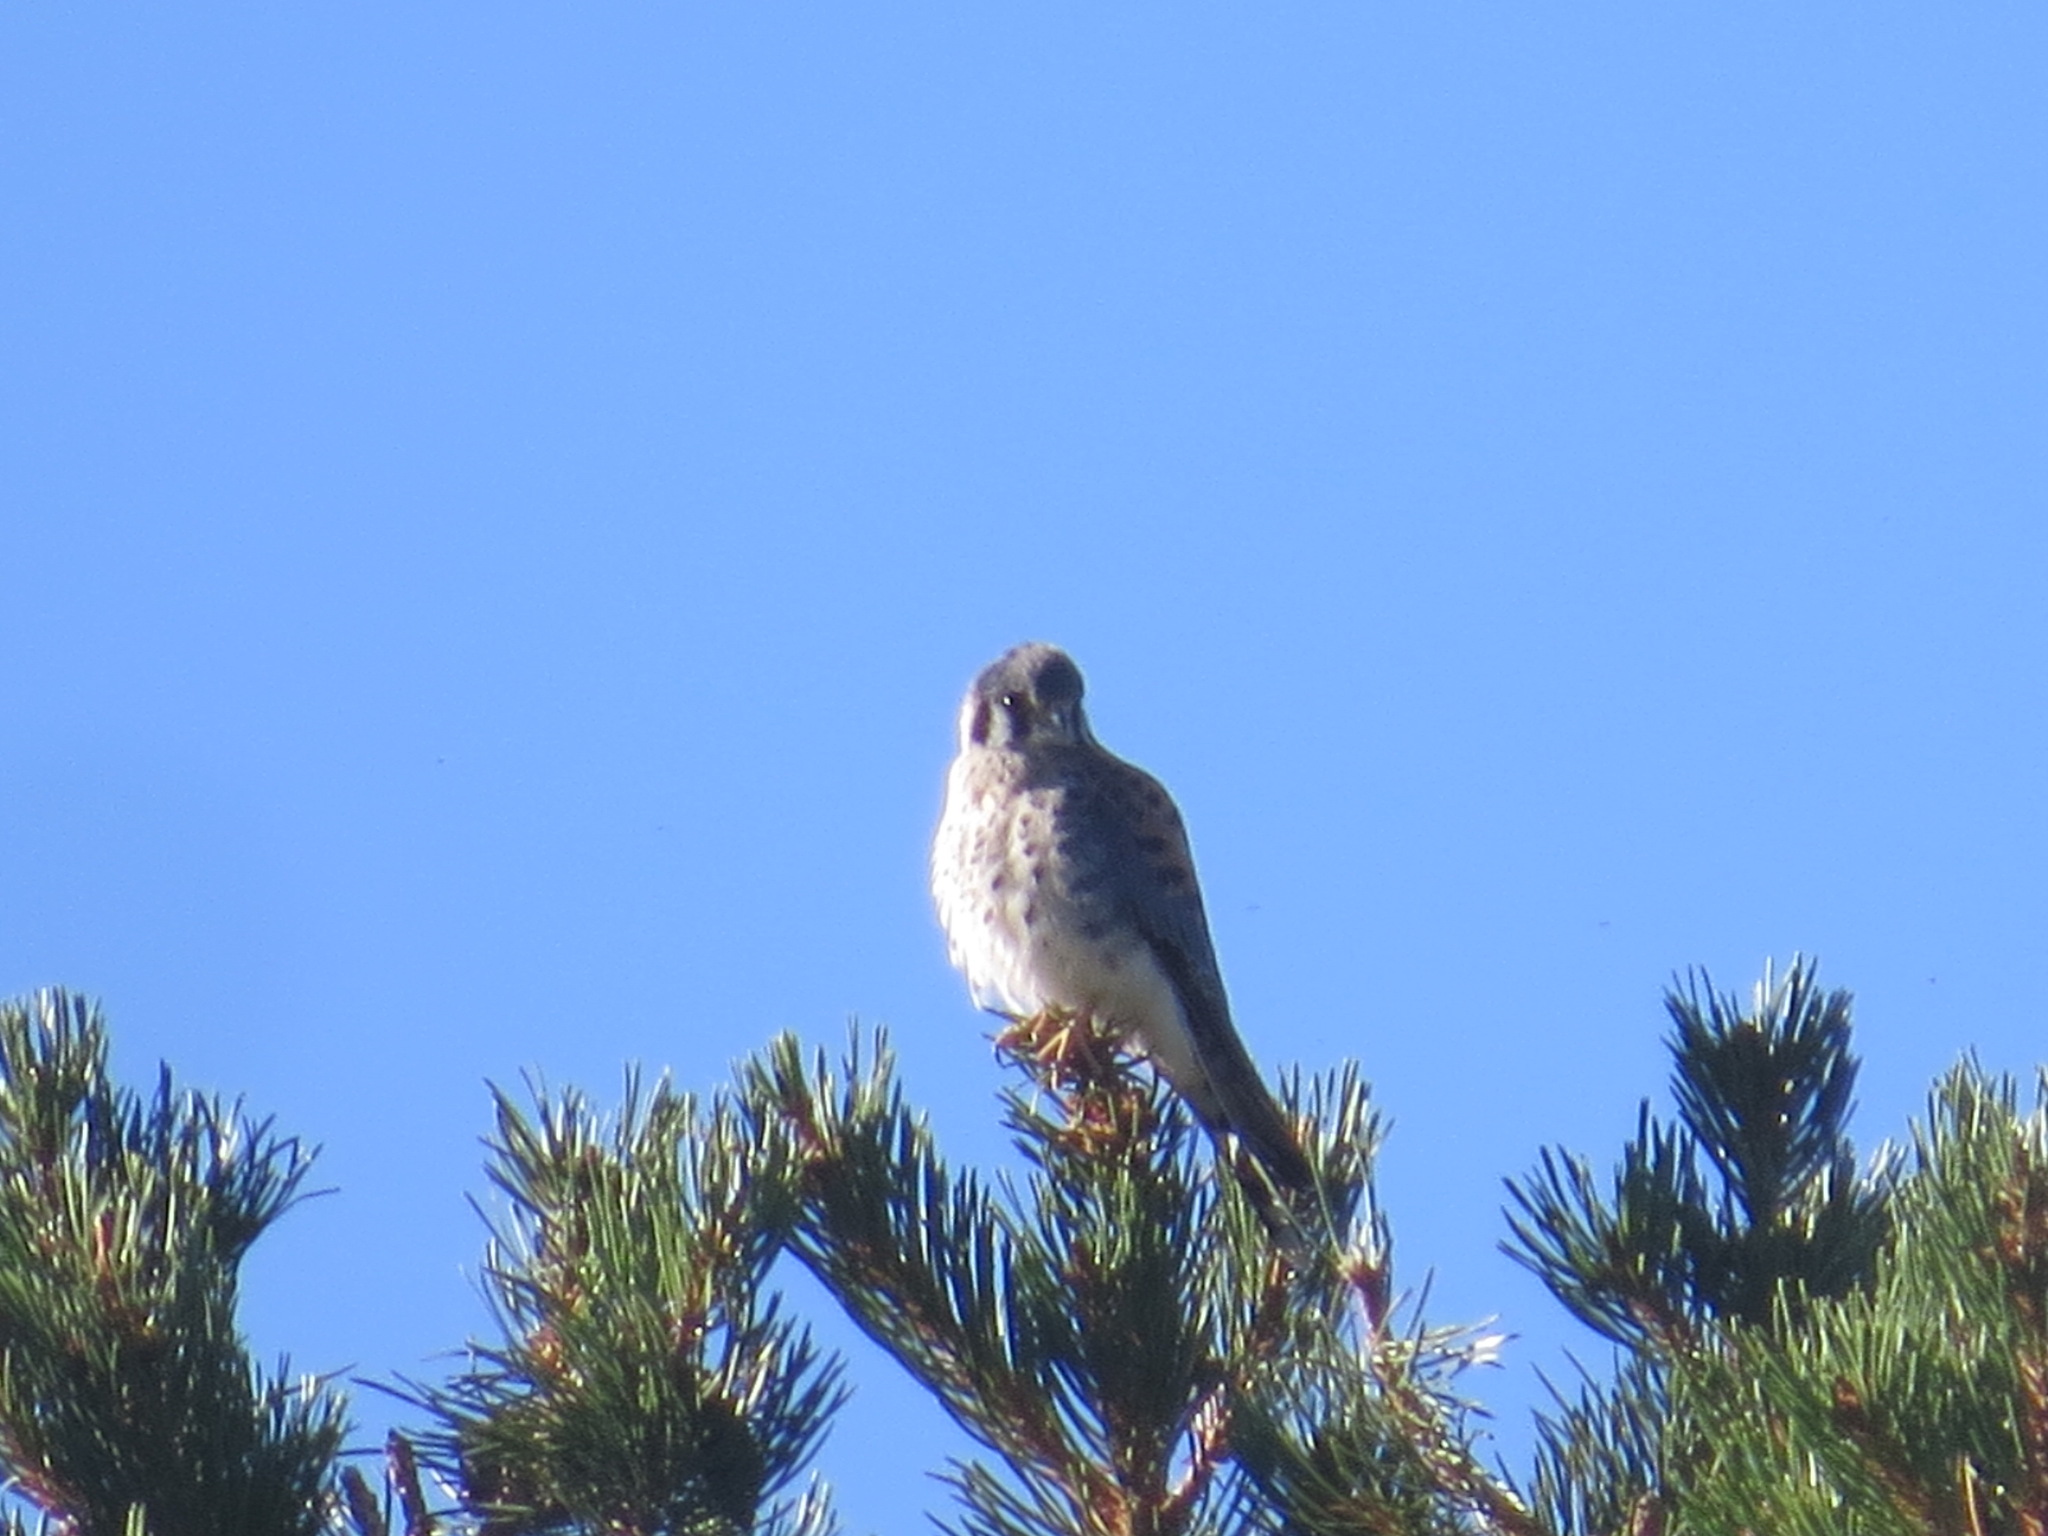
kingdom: Animalia
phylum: Chordata
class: Aves
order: Falconiformes
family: Falconidae
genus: Falco
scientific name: Falco sparverius
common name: American kestrel
